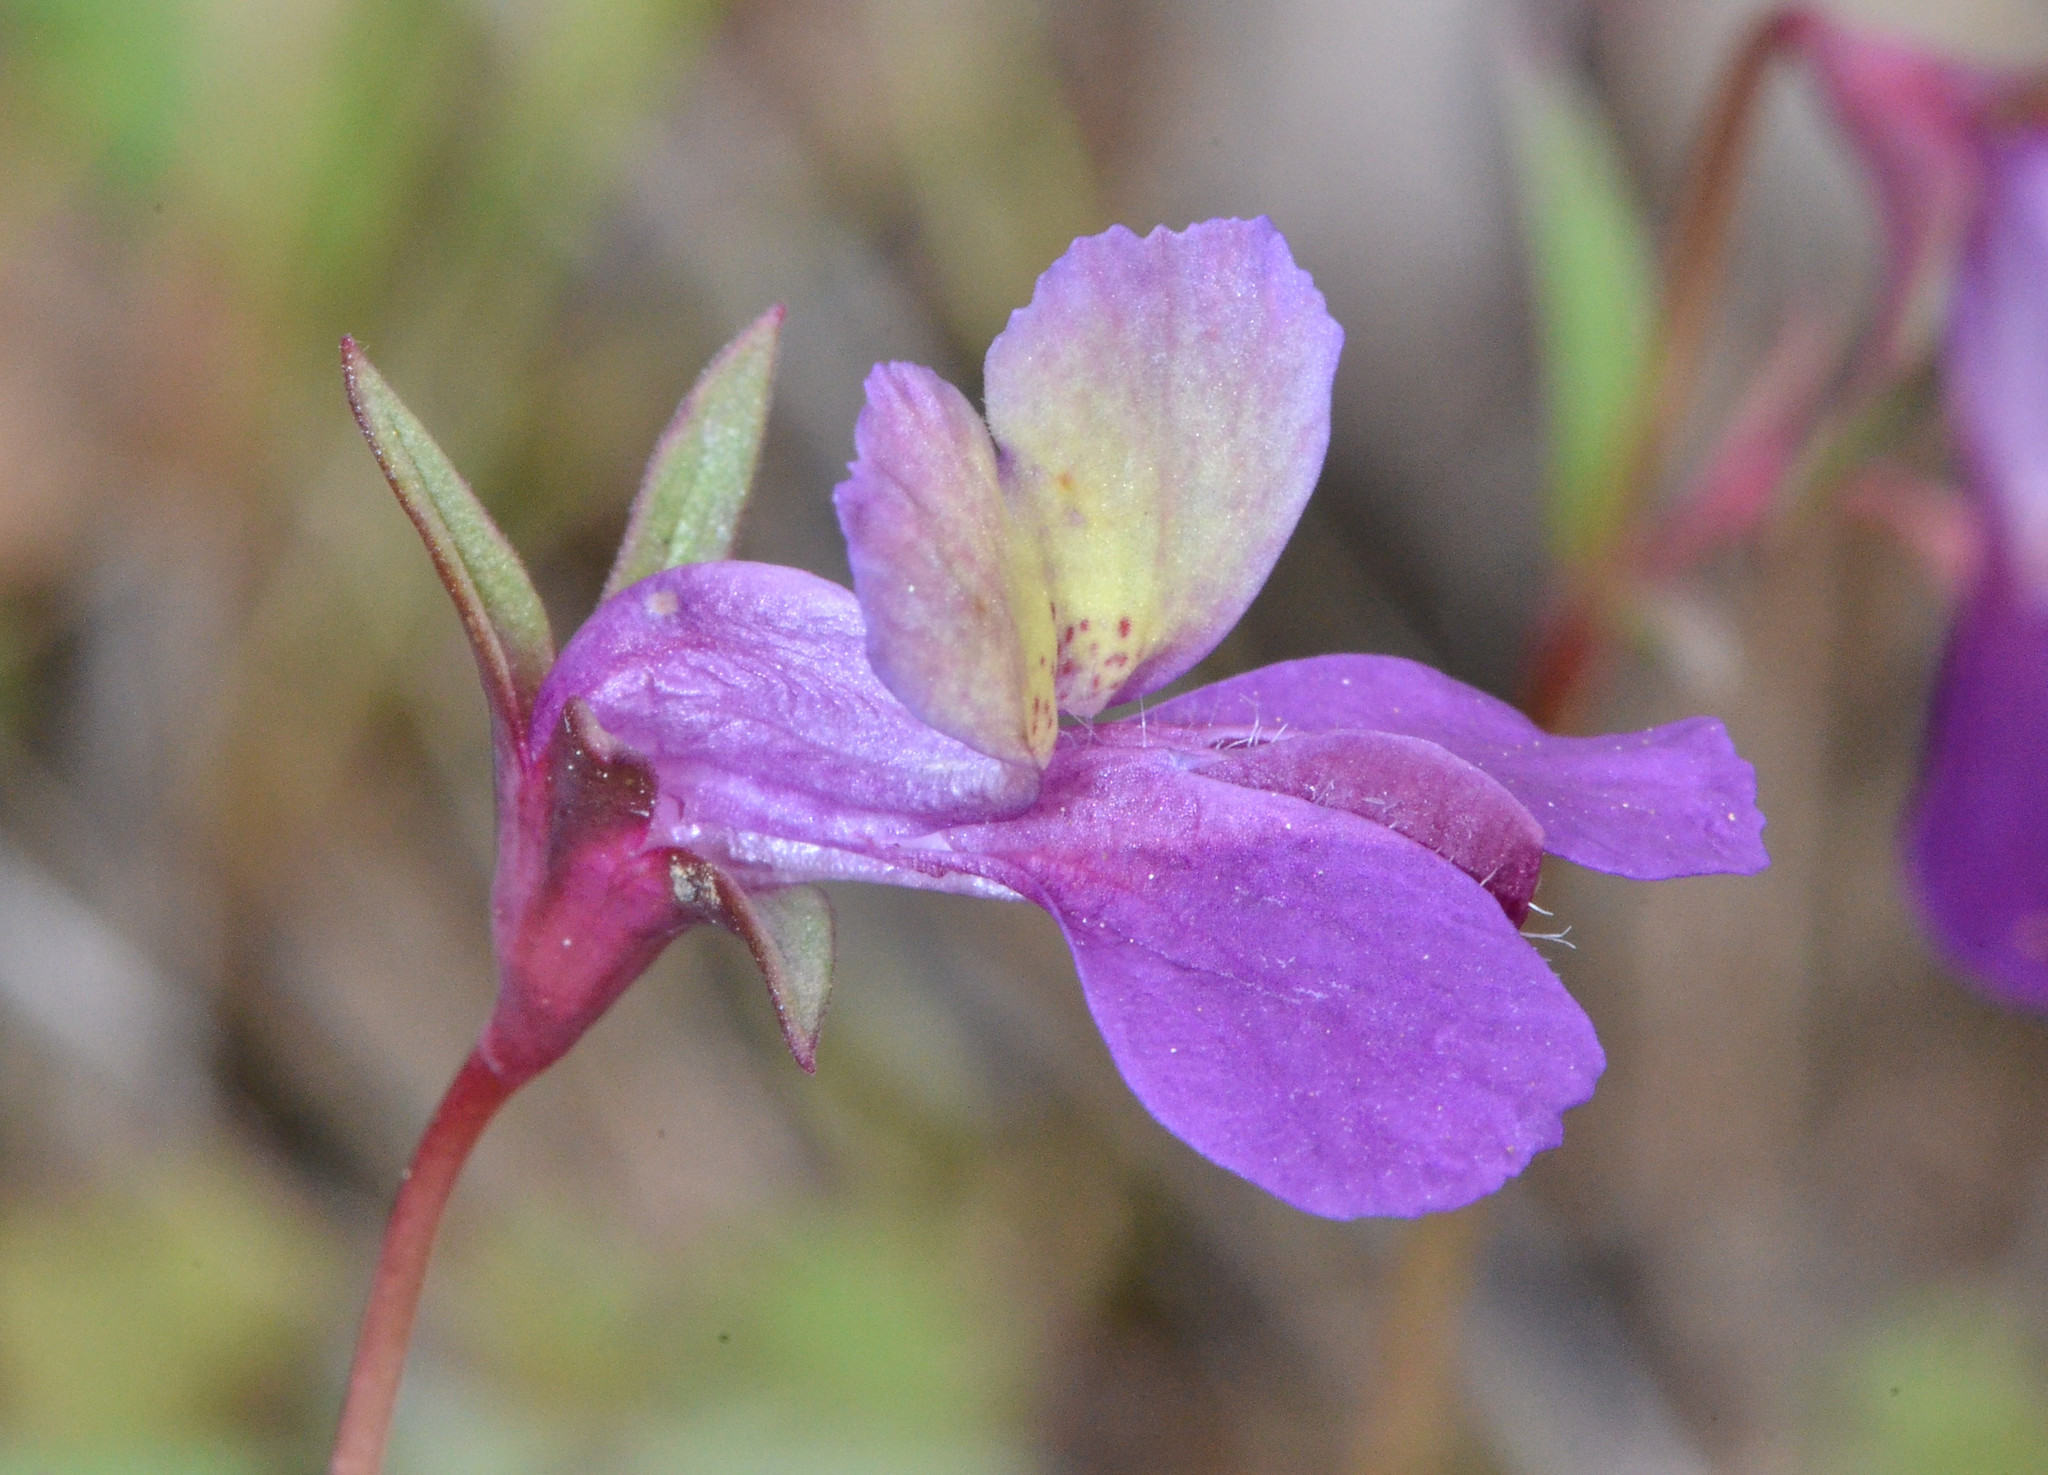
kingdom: Plantae
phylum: Tracheophyta
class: Magnoliopsida
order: Lamiales
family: Plantaginaceae
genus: Collinsia
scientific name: Collinsia sparsiflora
